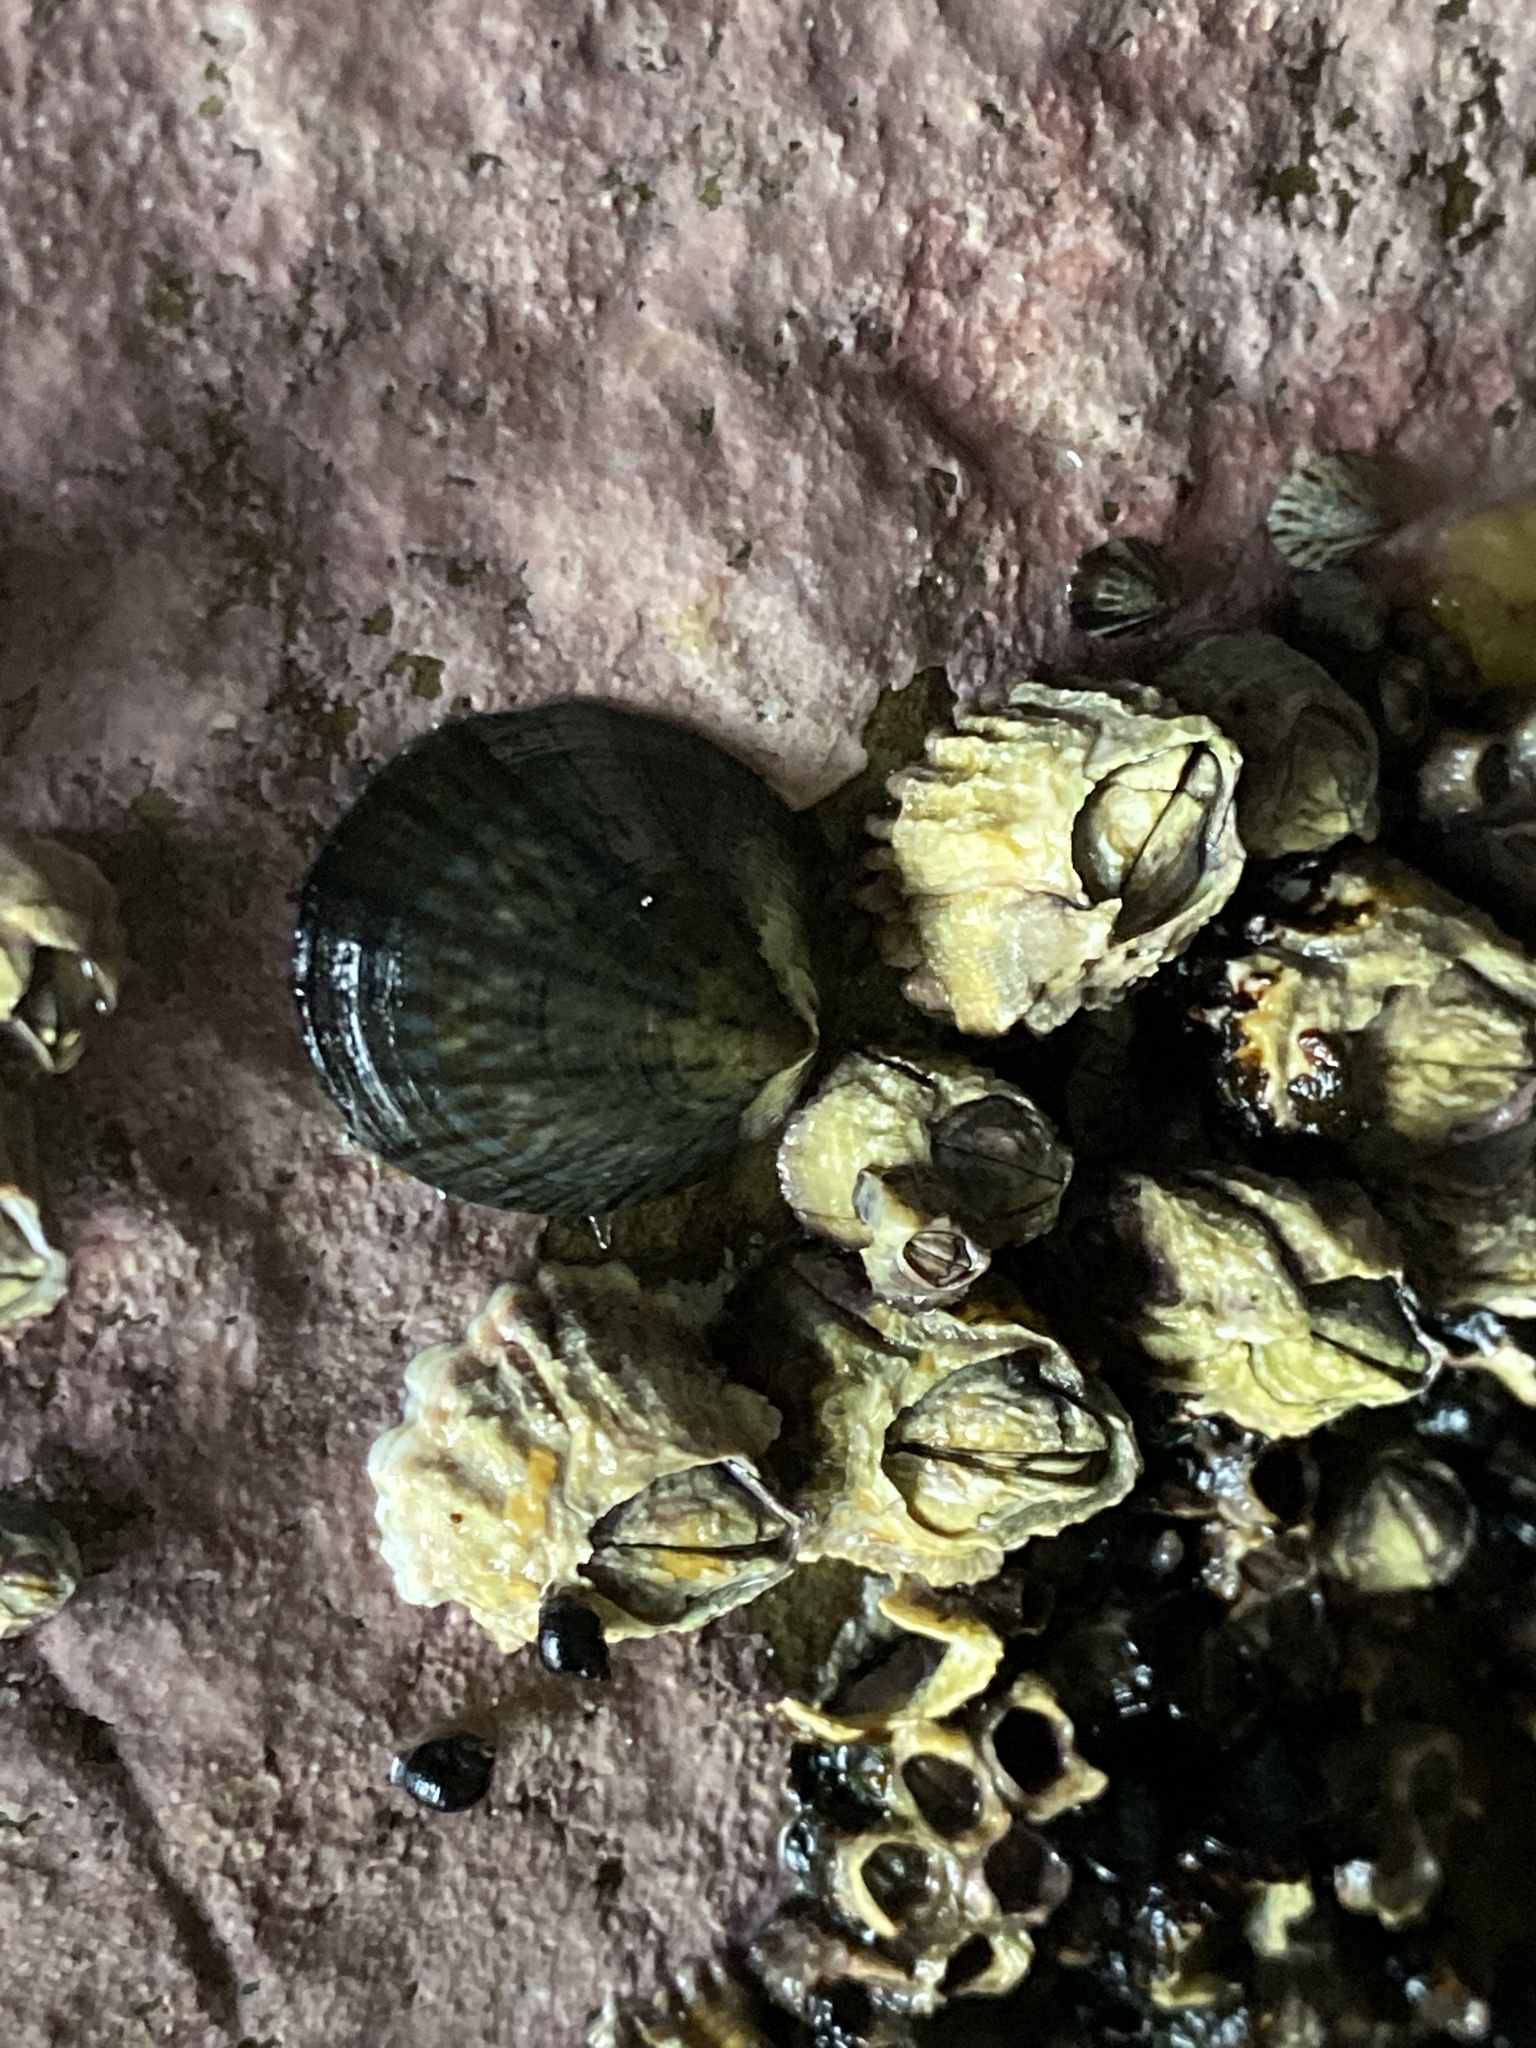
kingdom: Animalia
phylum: Mollusca
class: Gastropoda
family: Nacellidae
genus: Cellana
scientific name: Cellana radians
